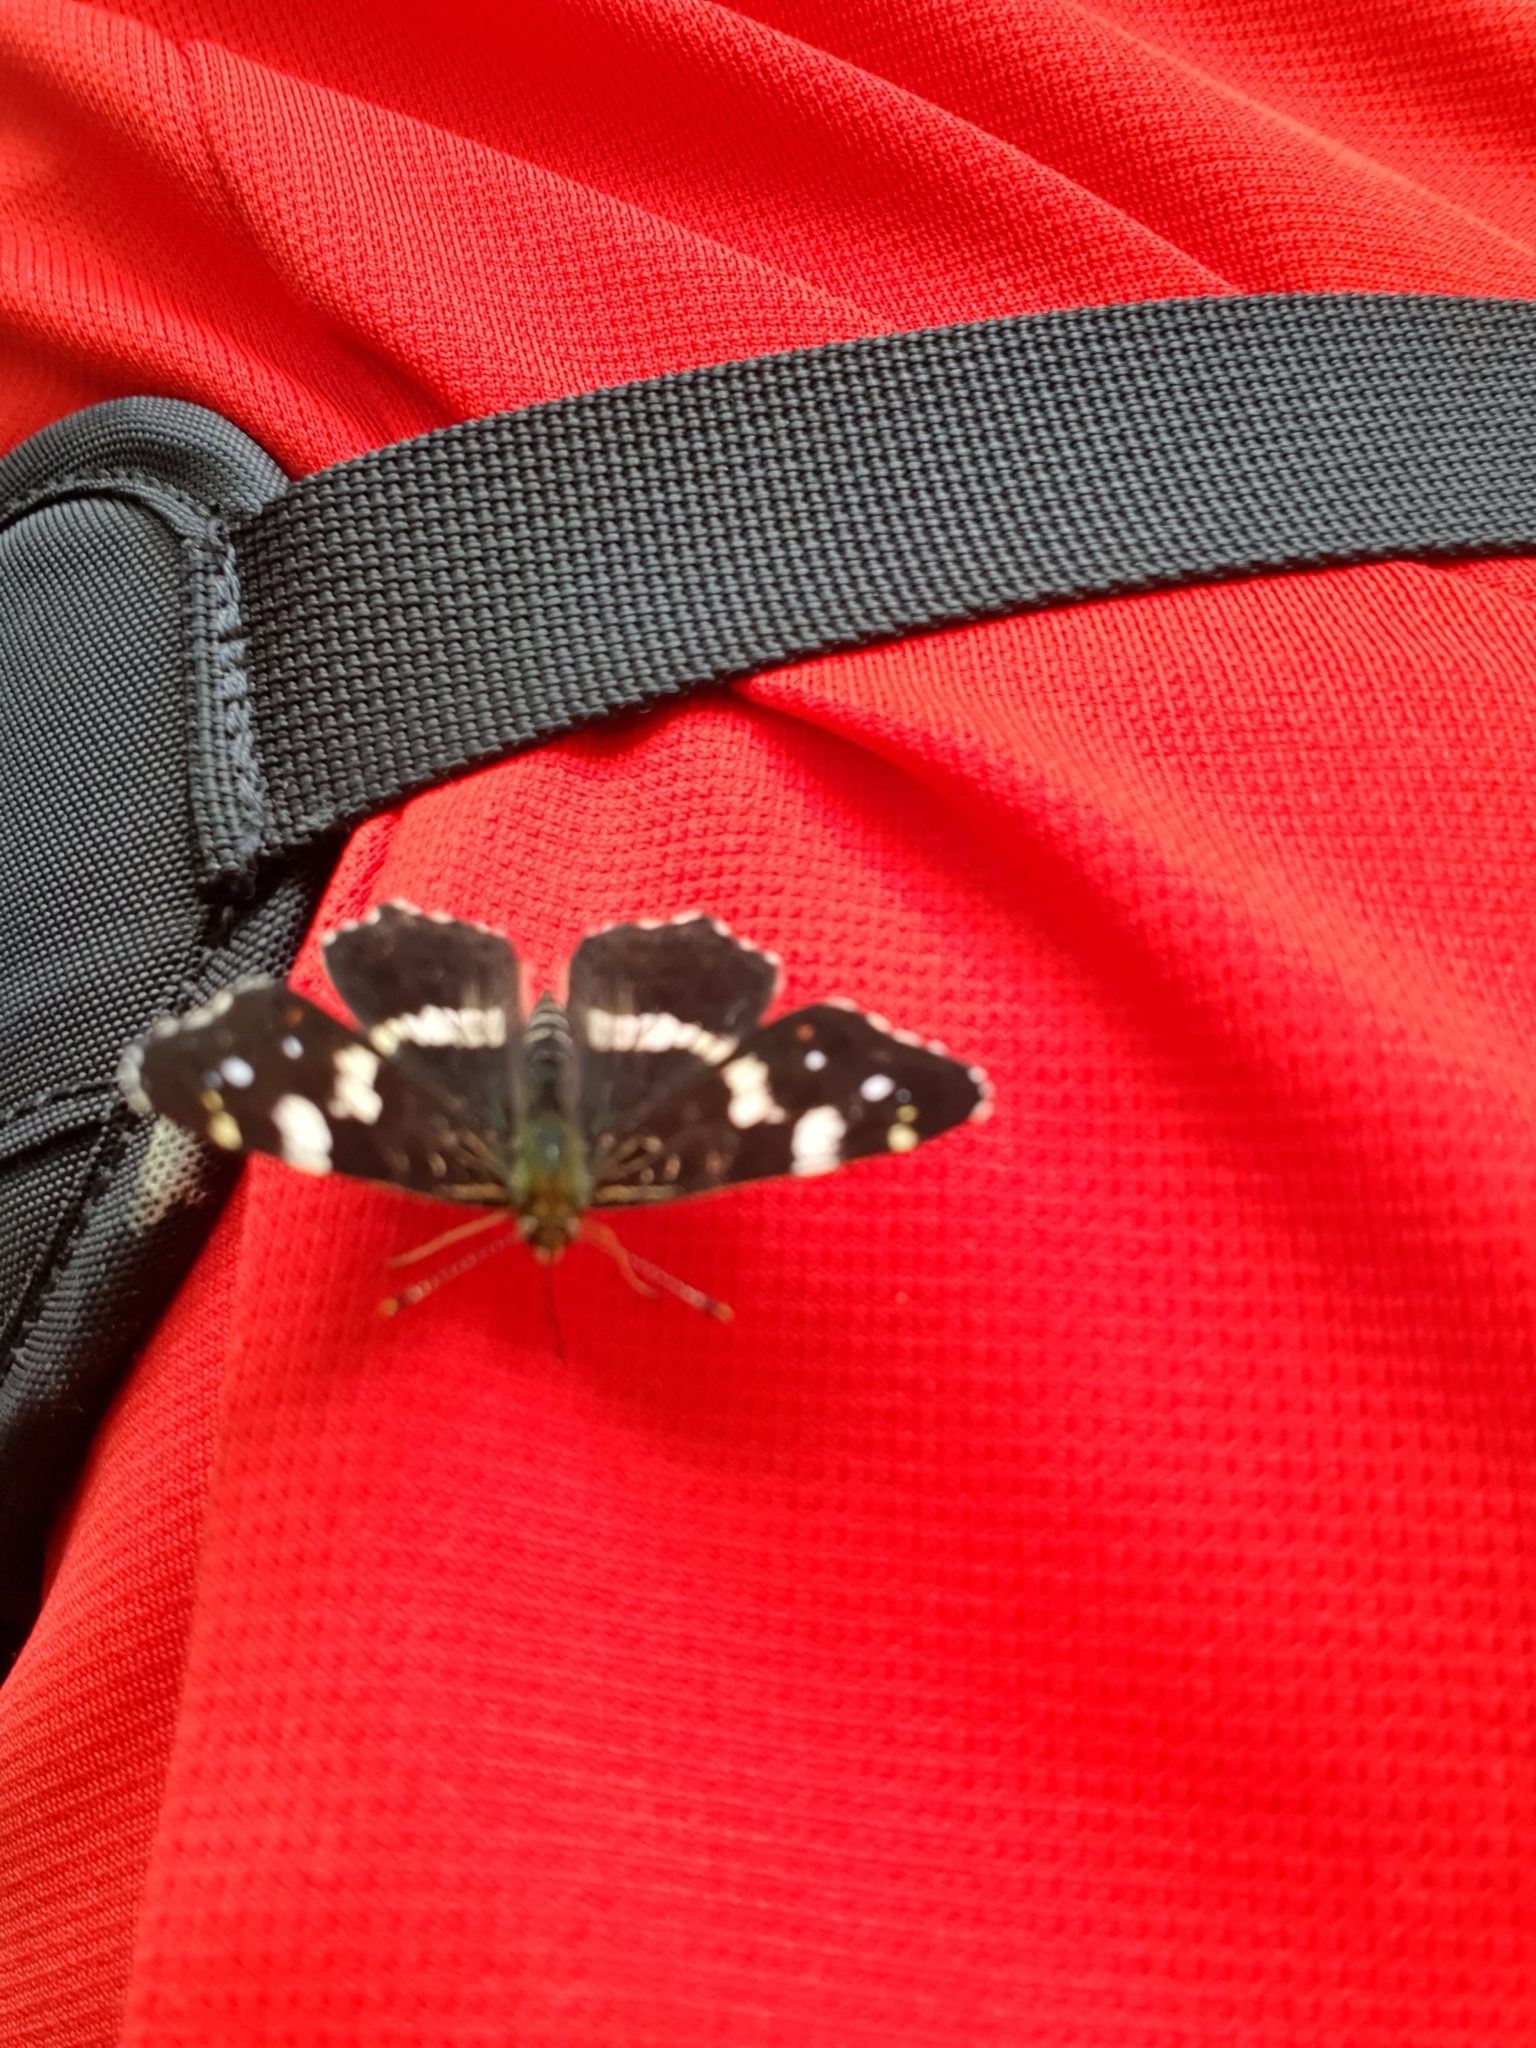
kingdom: Animalia
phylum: Arthropoda
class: Insecta
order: Lepidoptera
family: Nymphalidae
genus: Araschnia
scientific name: Araschnia levana
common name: Map butterfly
